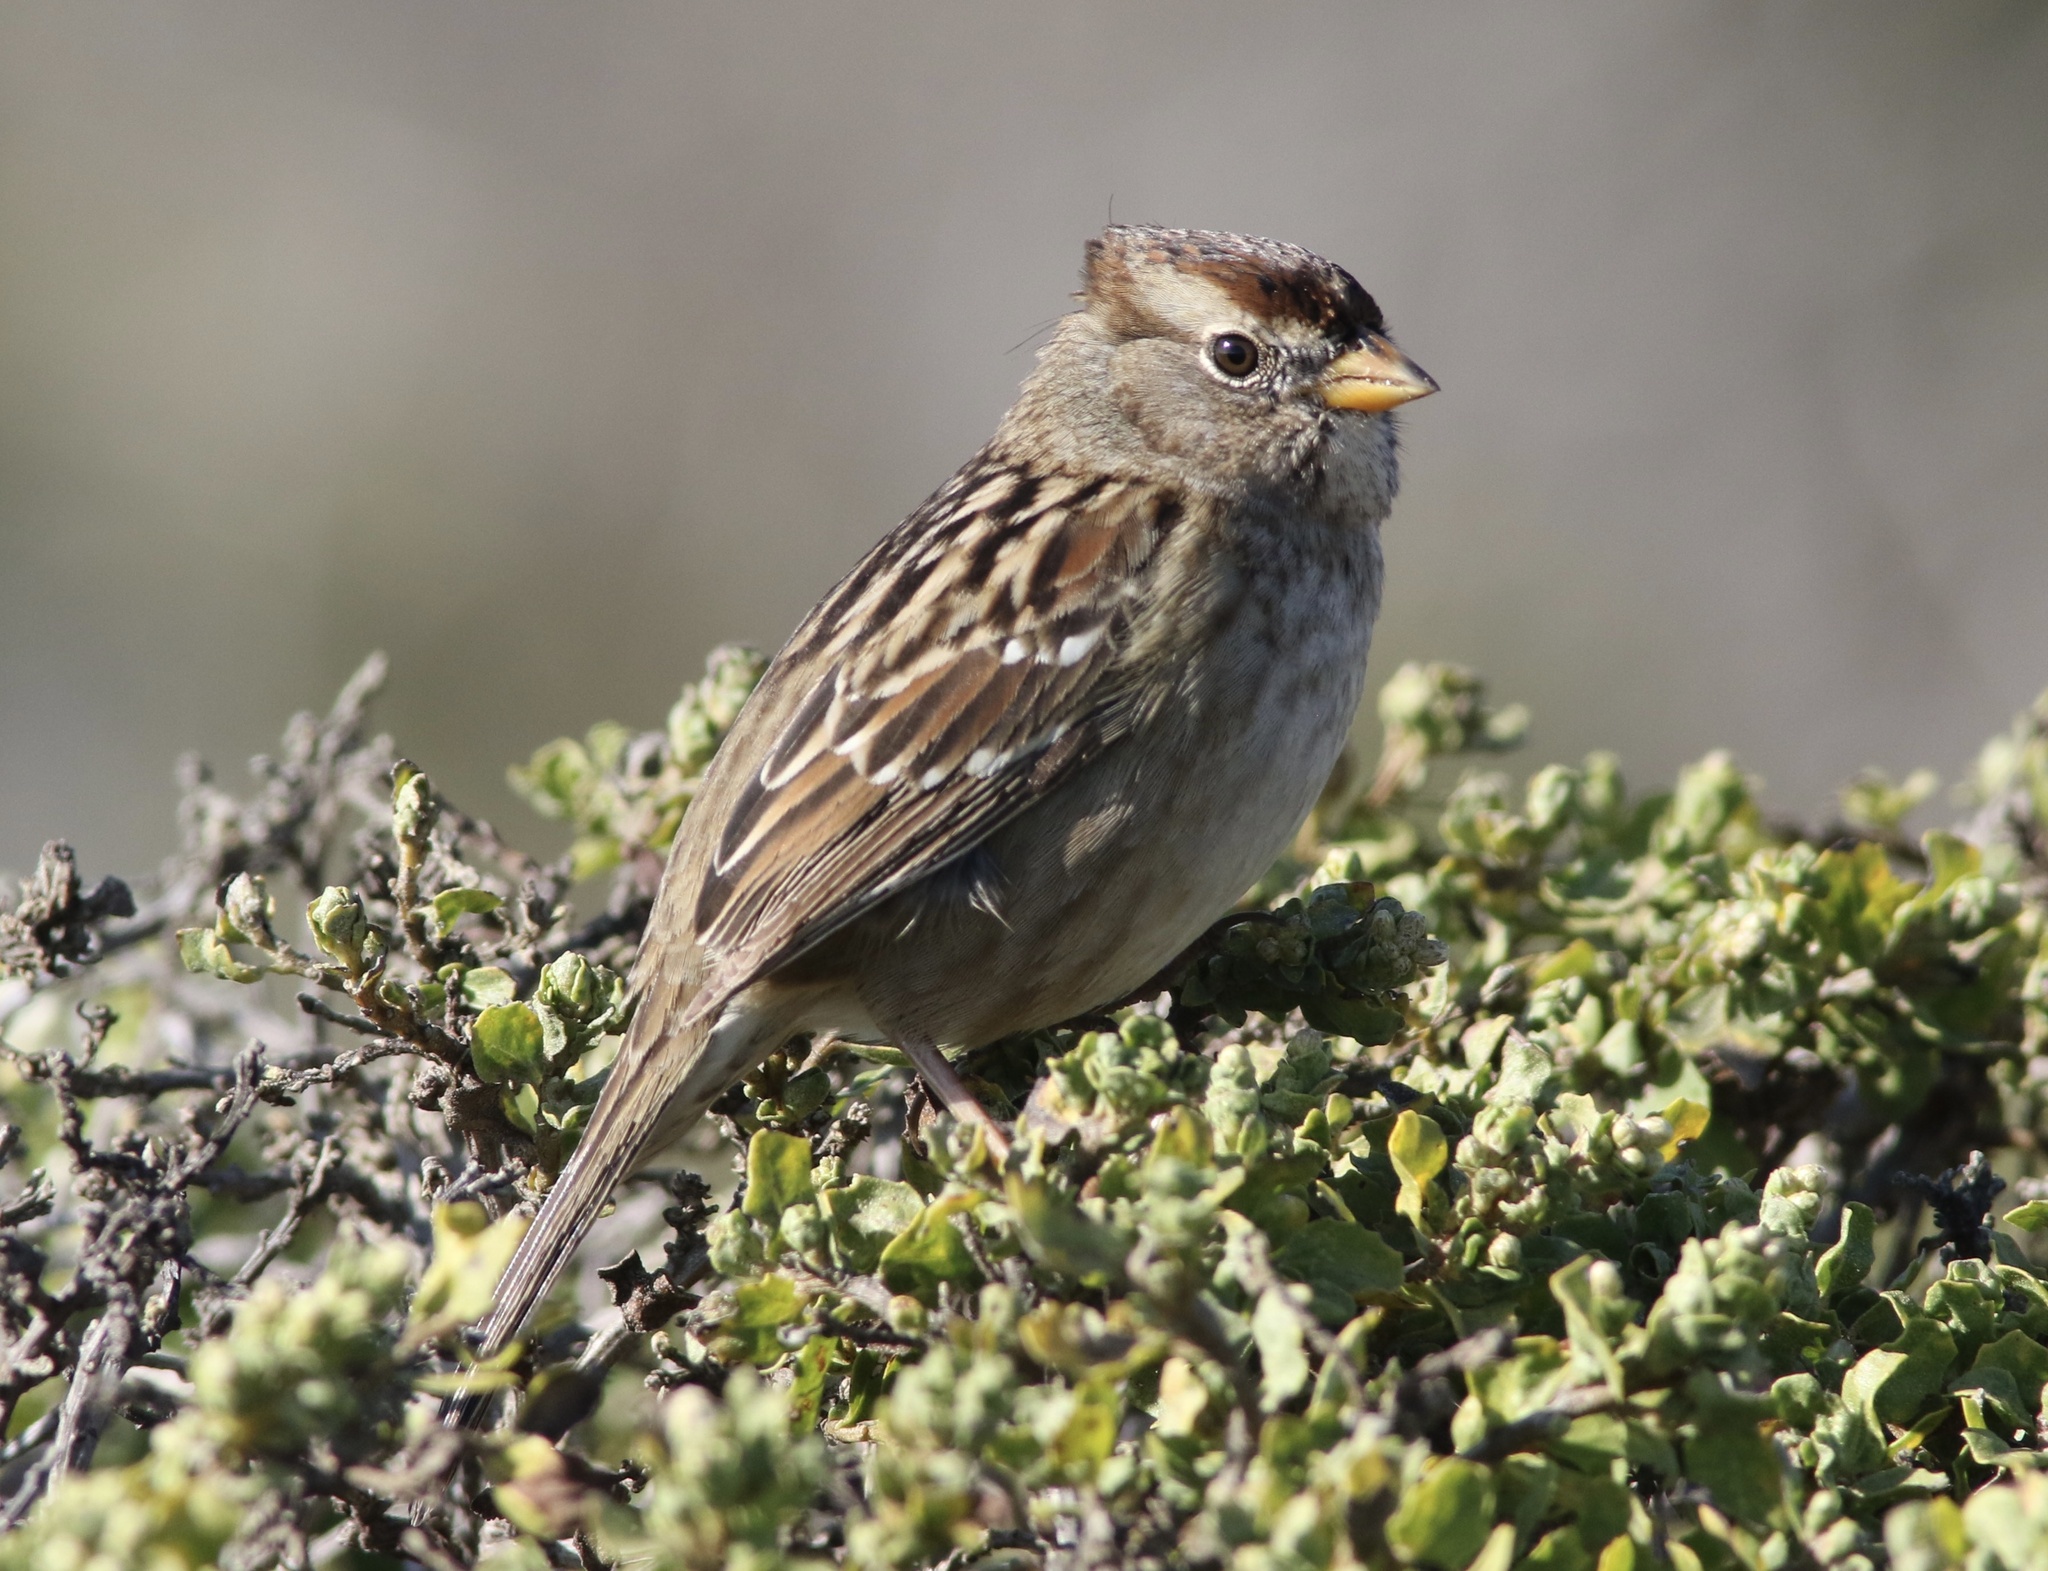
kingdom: Animalia
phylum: Chordata
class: Aves
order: Passeriformes
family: Passerellidae
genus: Zonotrichia
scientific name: Zonotrichia leucophrys
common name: White-crowned sparrow
